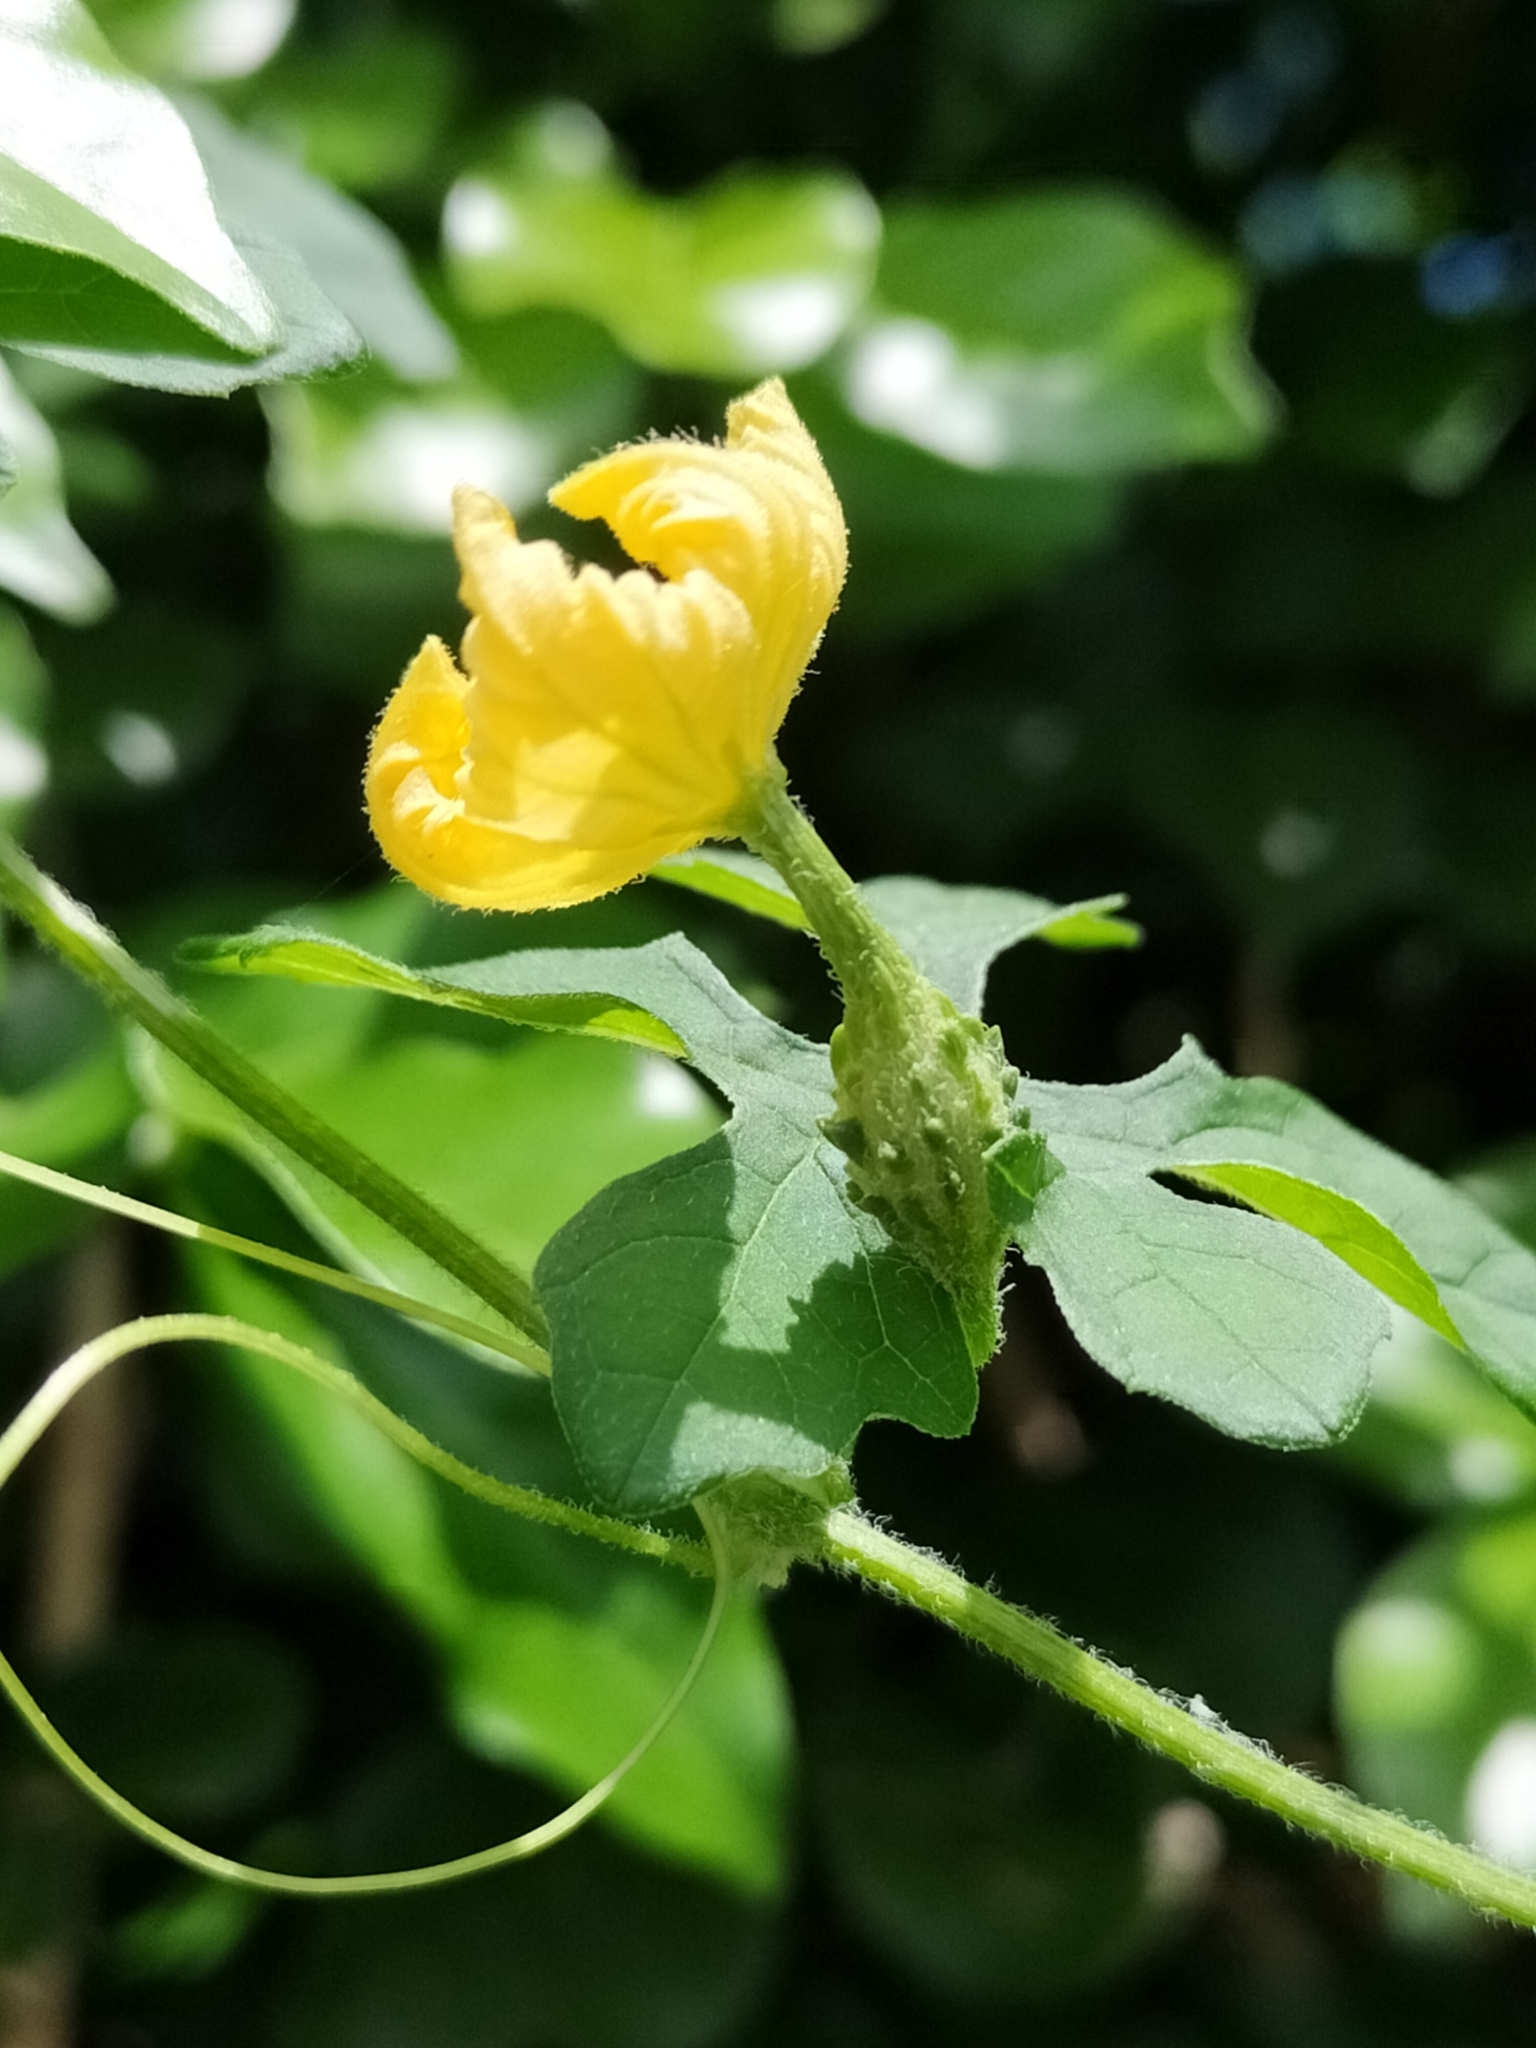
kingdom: Plantae
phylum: Tracheophyta
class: Magnoliopsida
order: Cucurbitales
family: Cucurbitaceae
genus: Momordica
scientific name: Momordica charantia
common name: Balsampear
